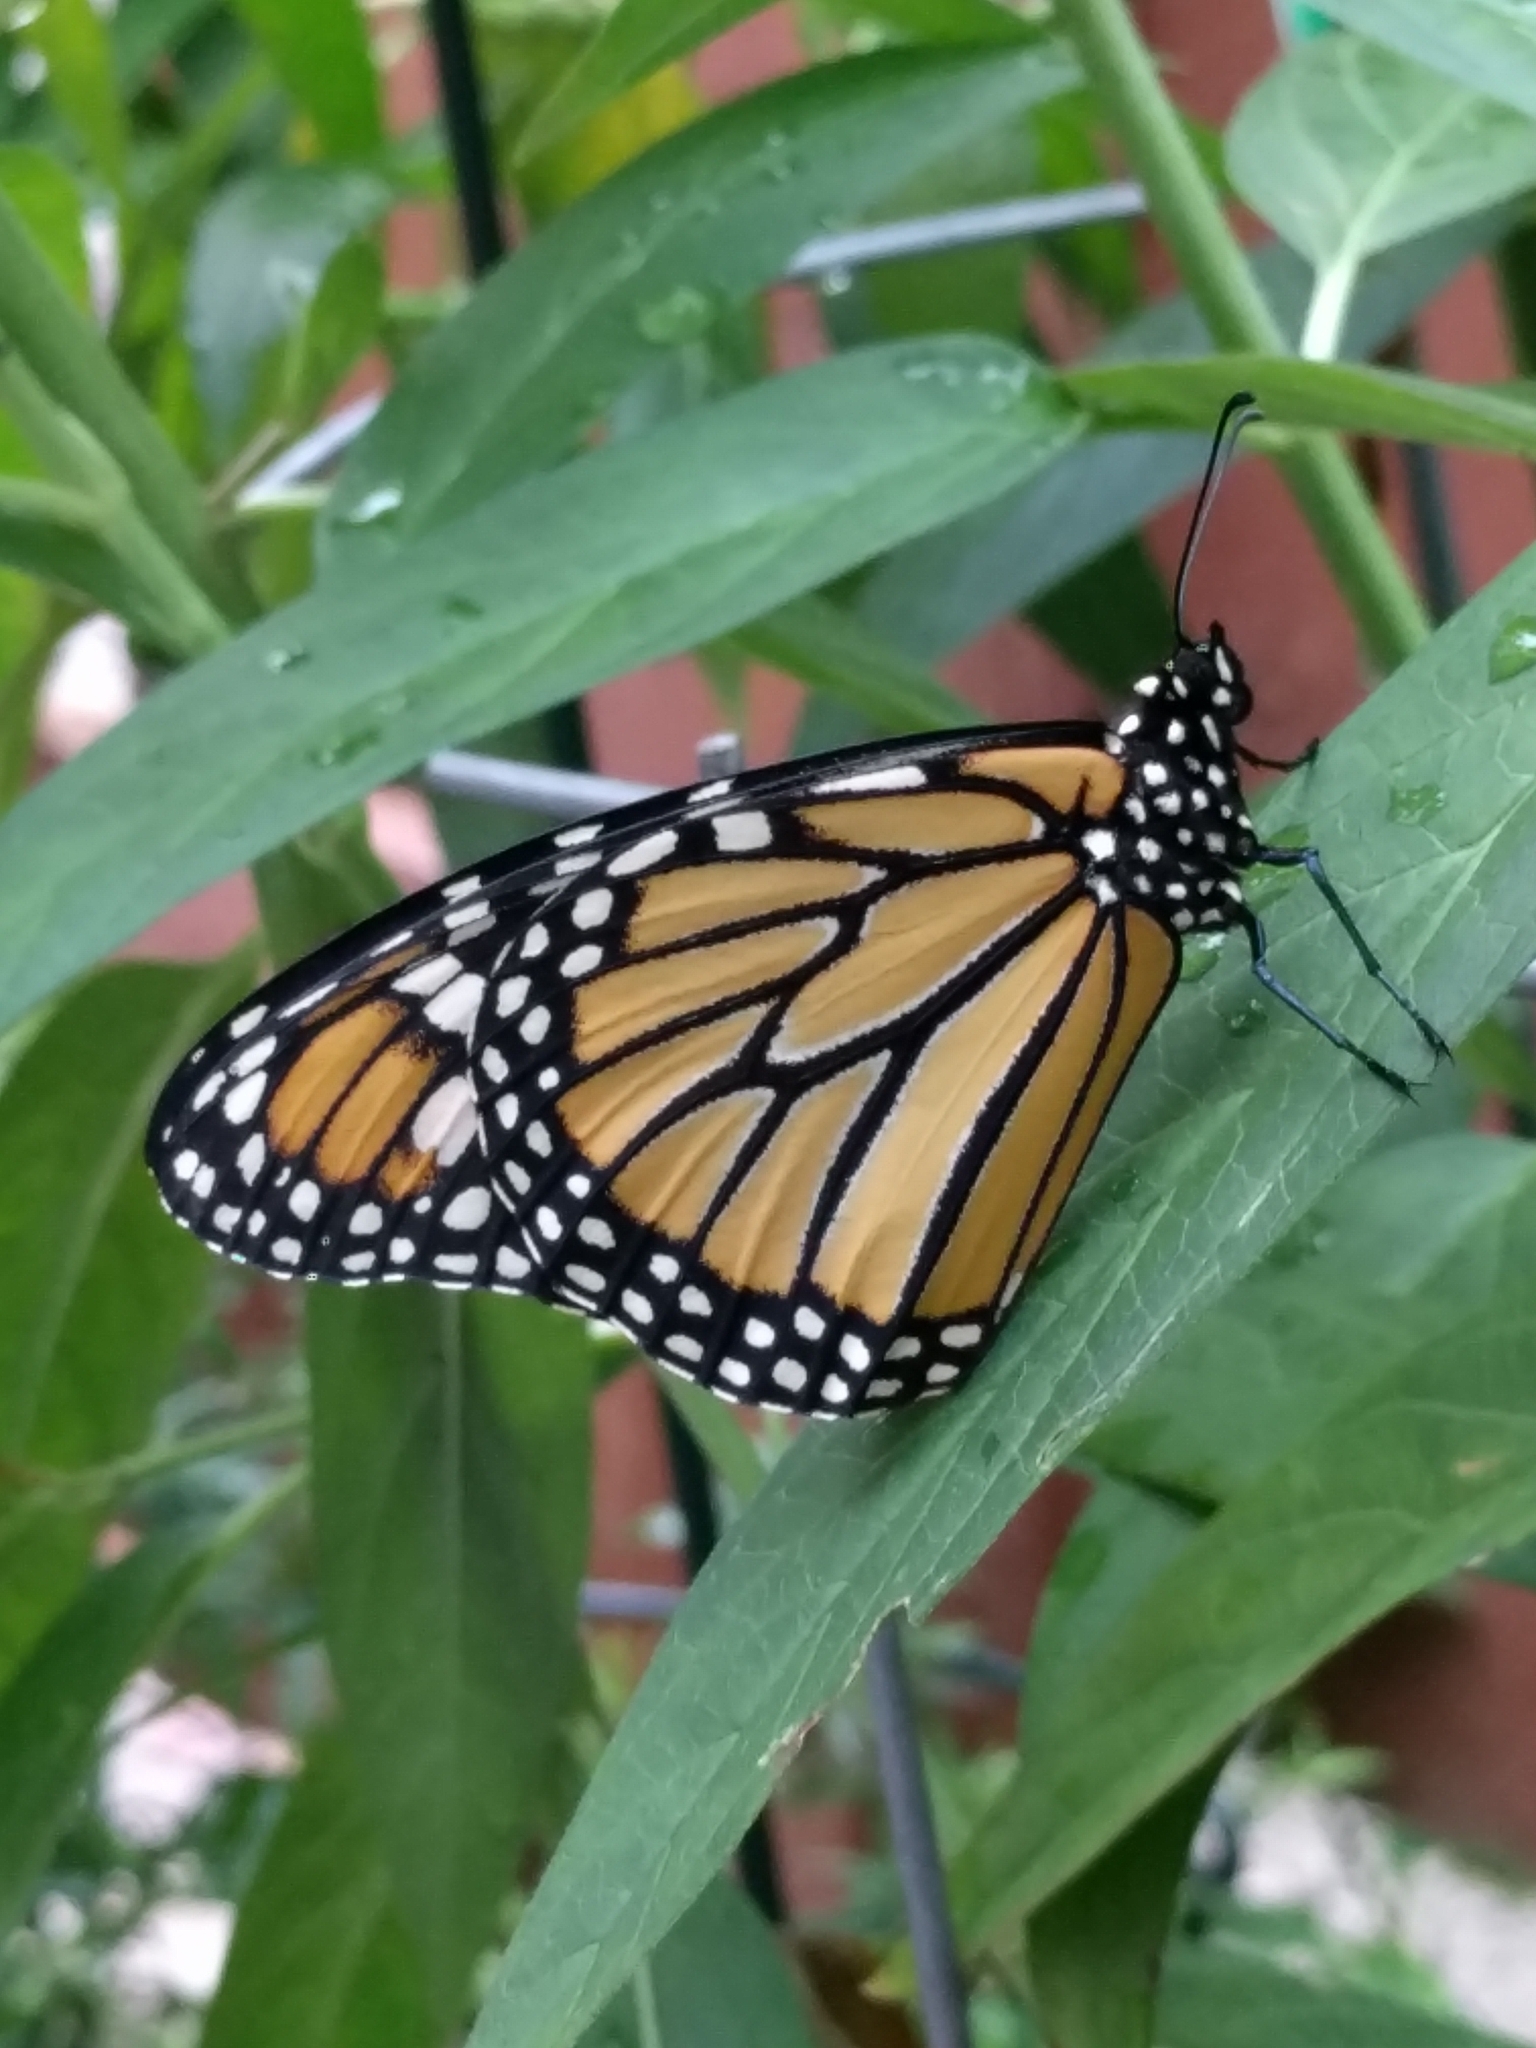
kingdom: Animalia
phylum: Arthropoda
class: Insecta
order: Lepidoptera
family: Nymphalidae
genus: Danaus
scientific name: Danaus plexippus
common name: Monarch
